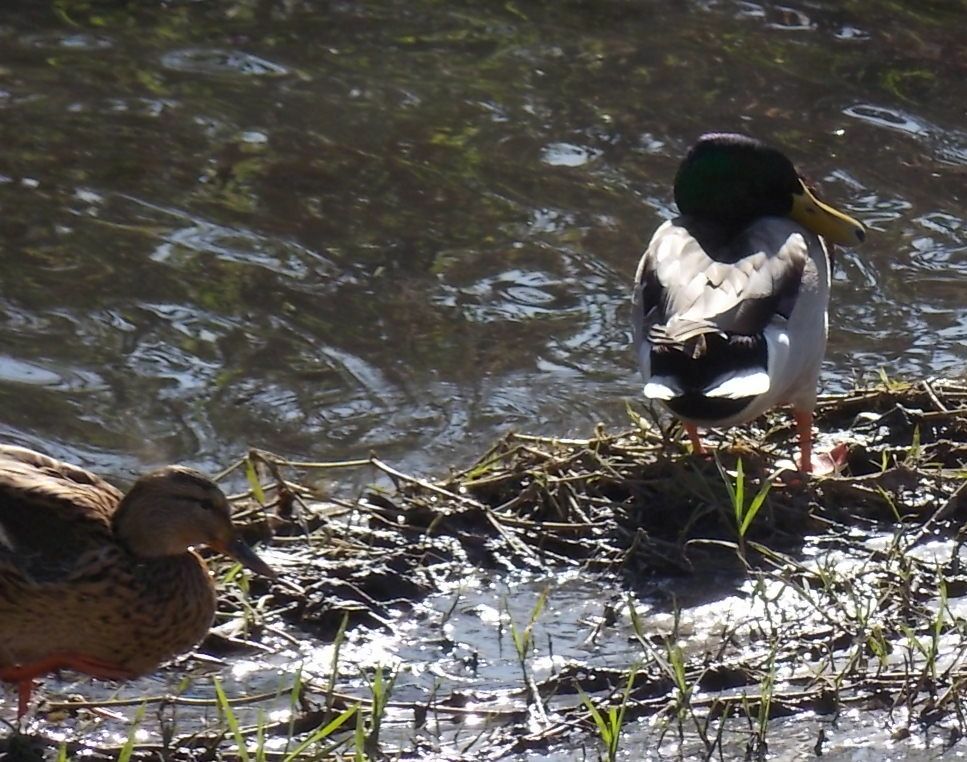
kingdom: Animalia
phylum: Chordata
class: Aves
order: Anseriformes
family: Anatidae
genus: Anas
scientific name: Anas platyrhynchos
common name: Mallard
